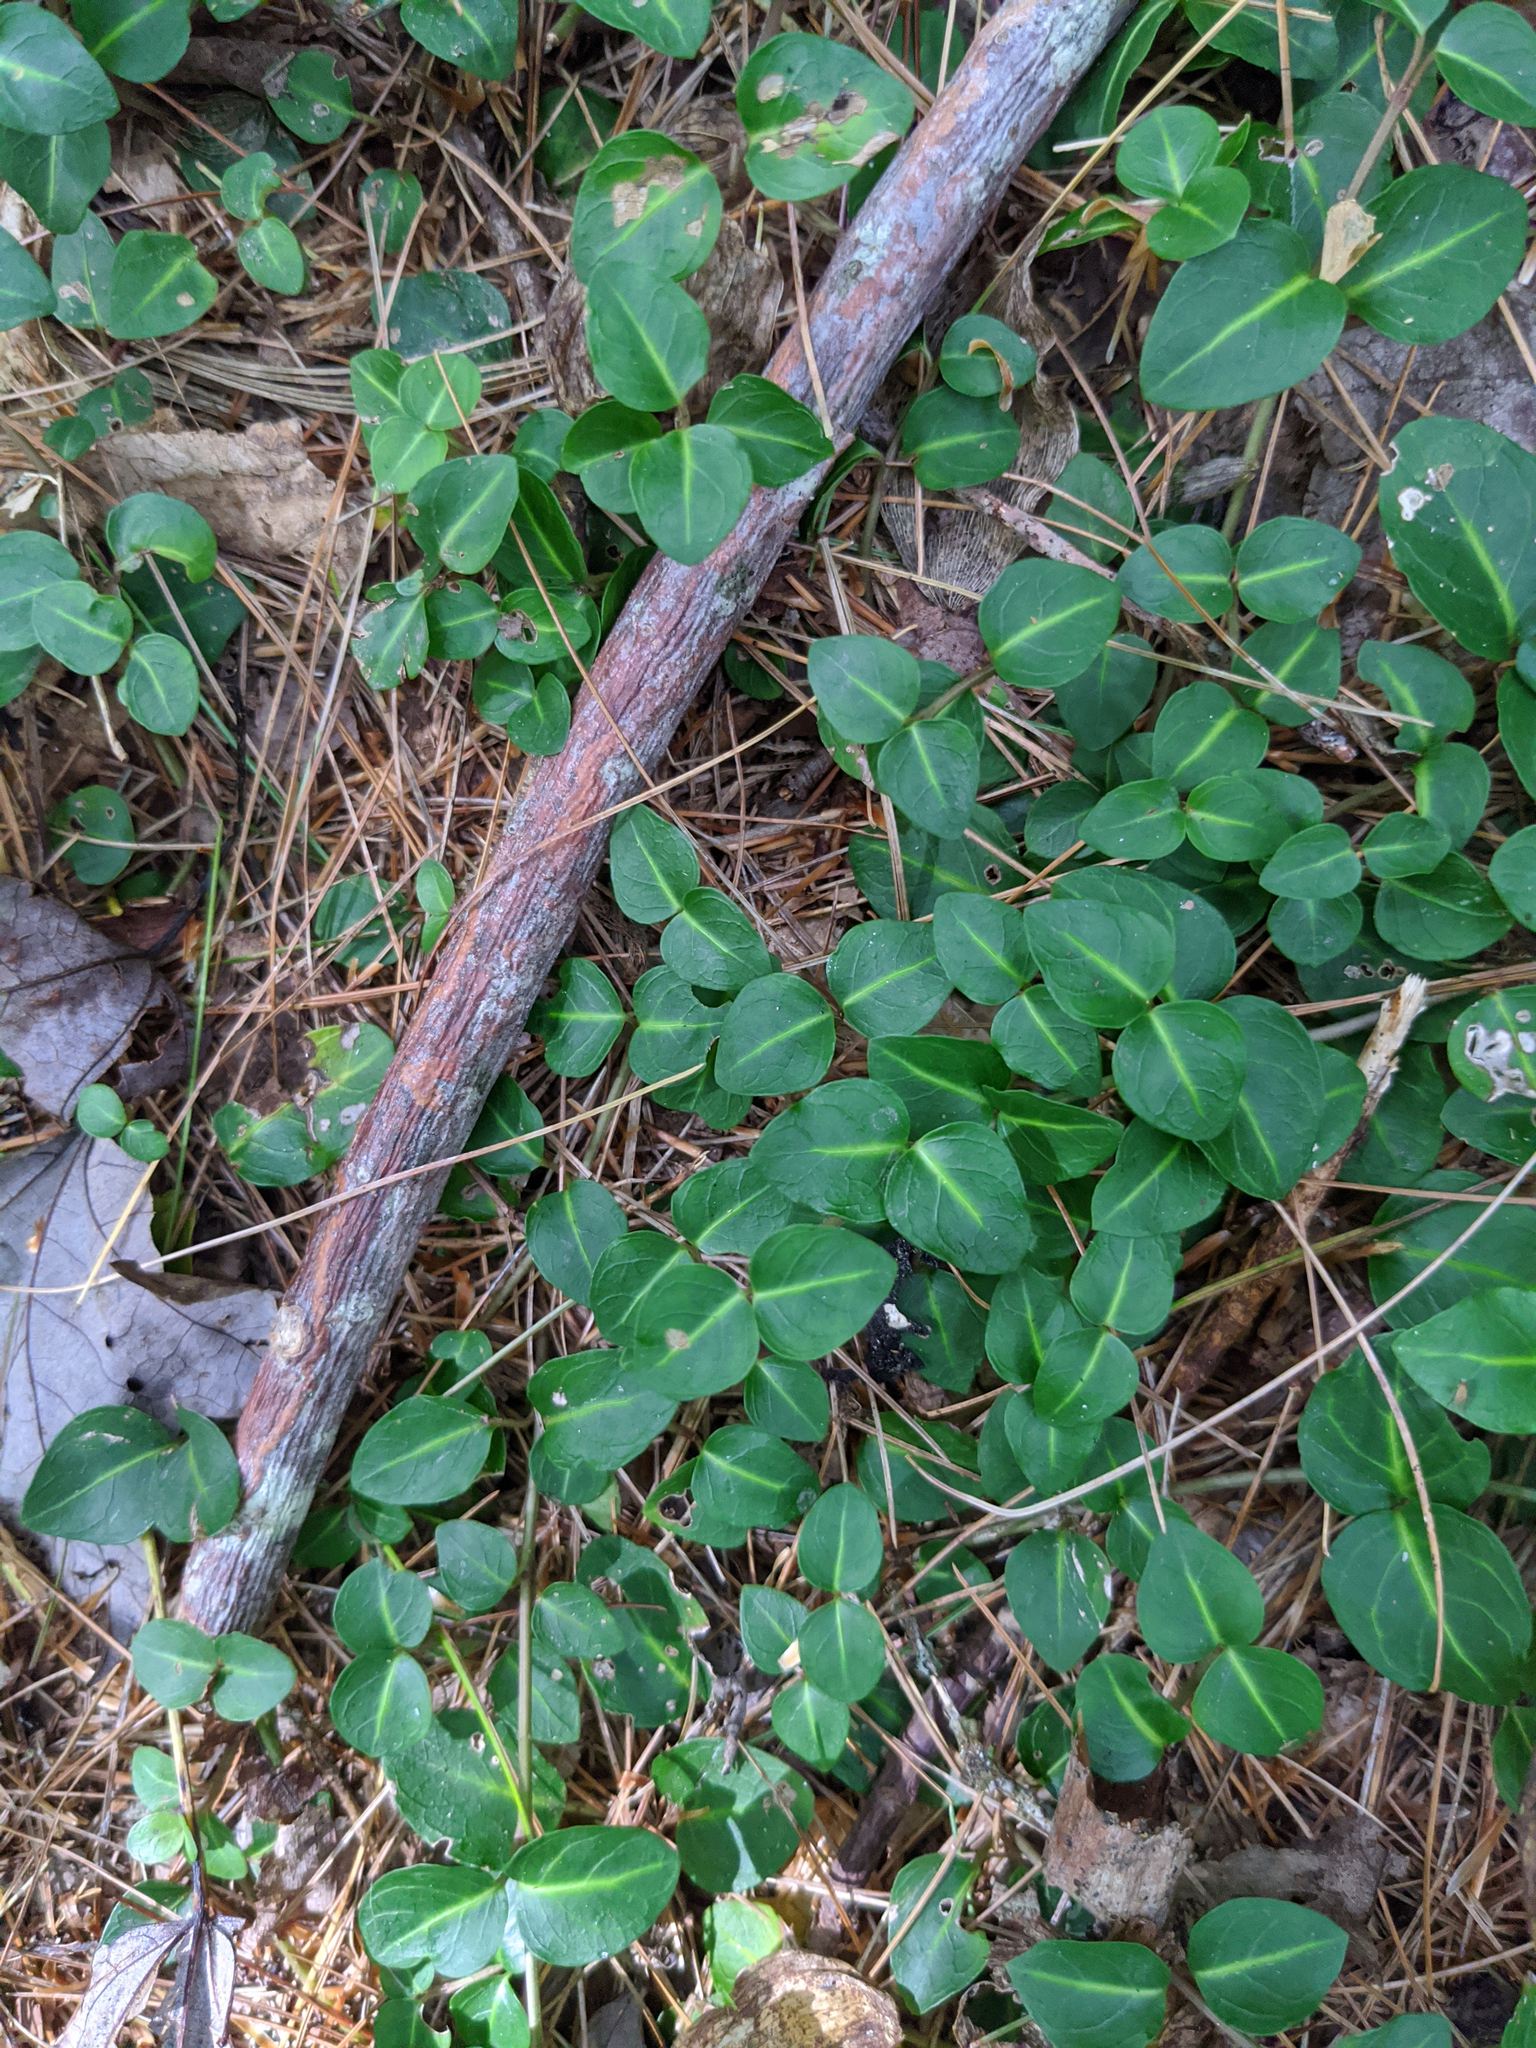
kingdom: Plantae
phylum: Tracheophyta
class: Magnoliopsida
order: Gentianales
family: Rubiaceae
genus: Mitchella
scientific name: Mitchella repens
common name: Partridge-berry
